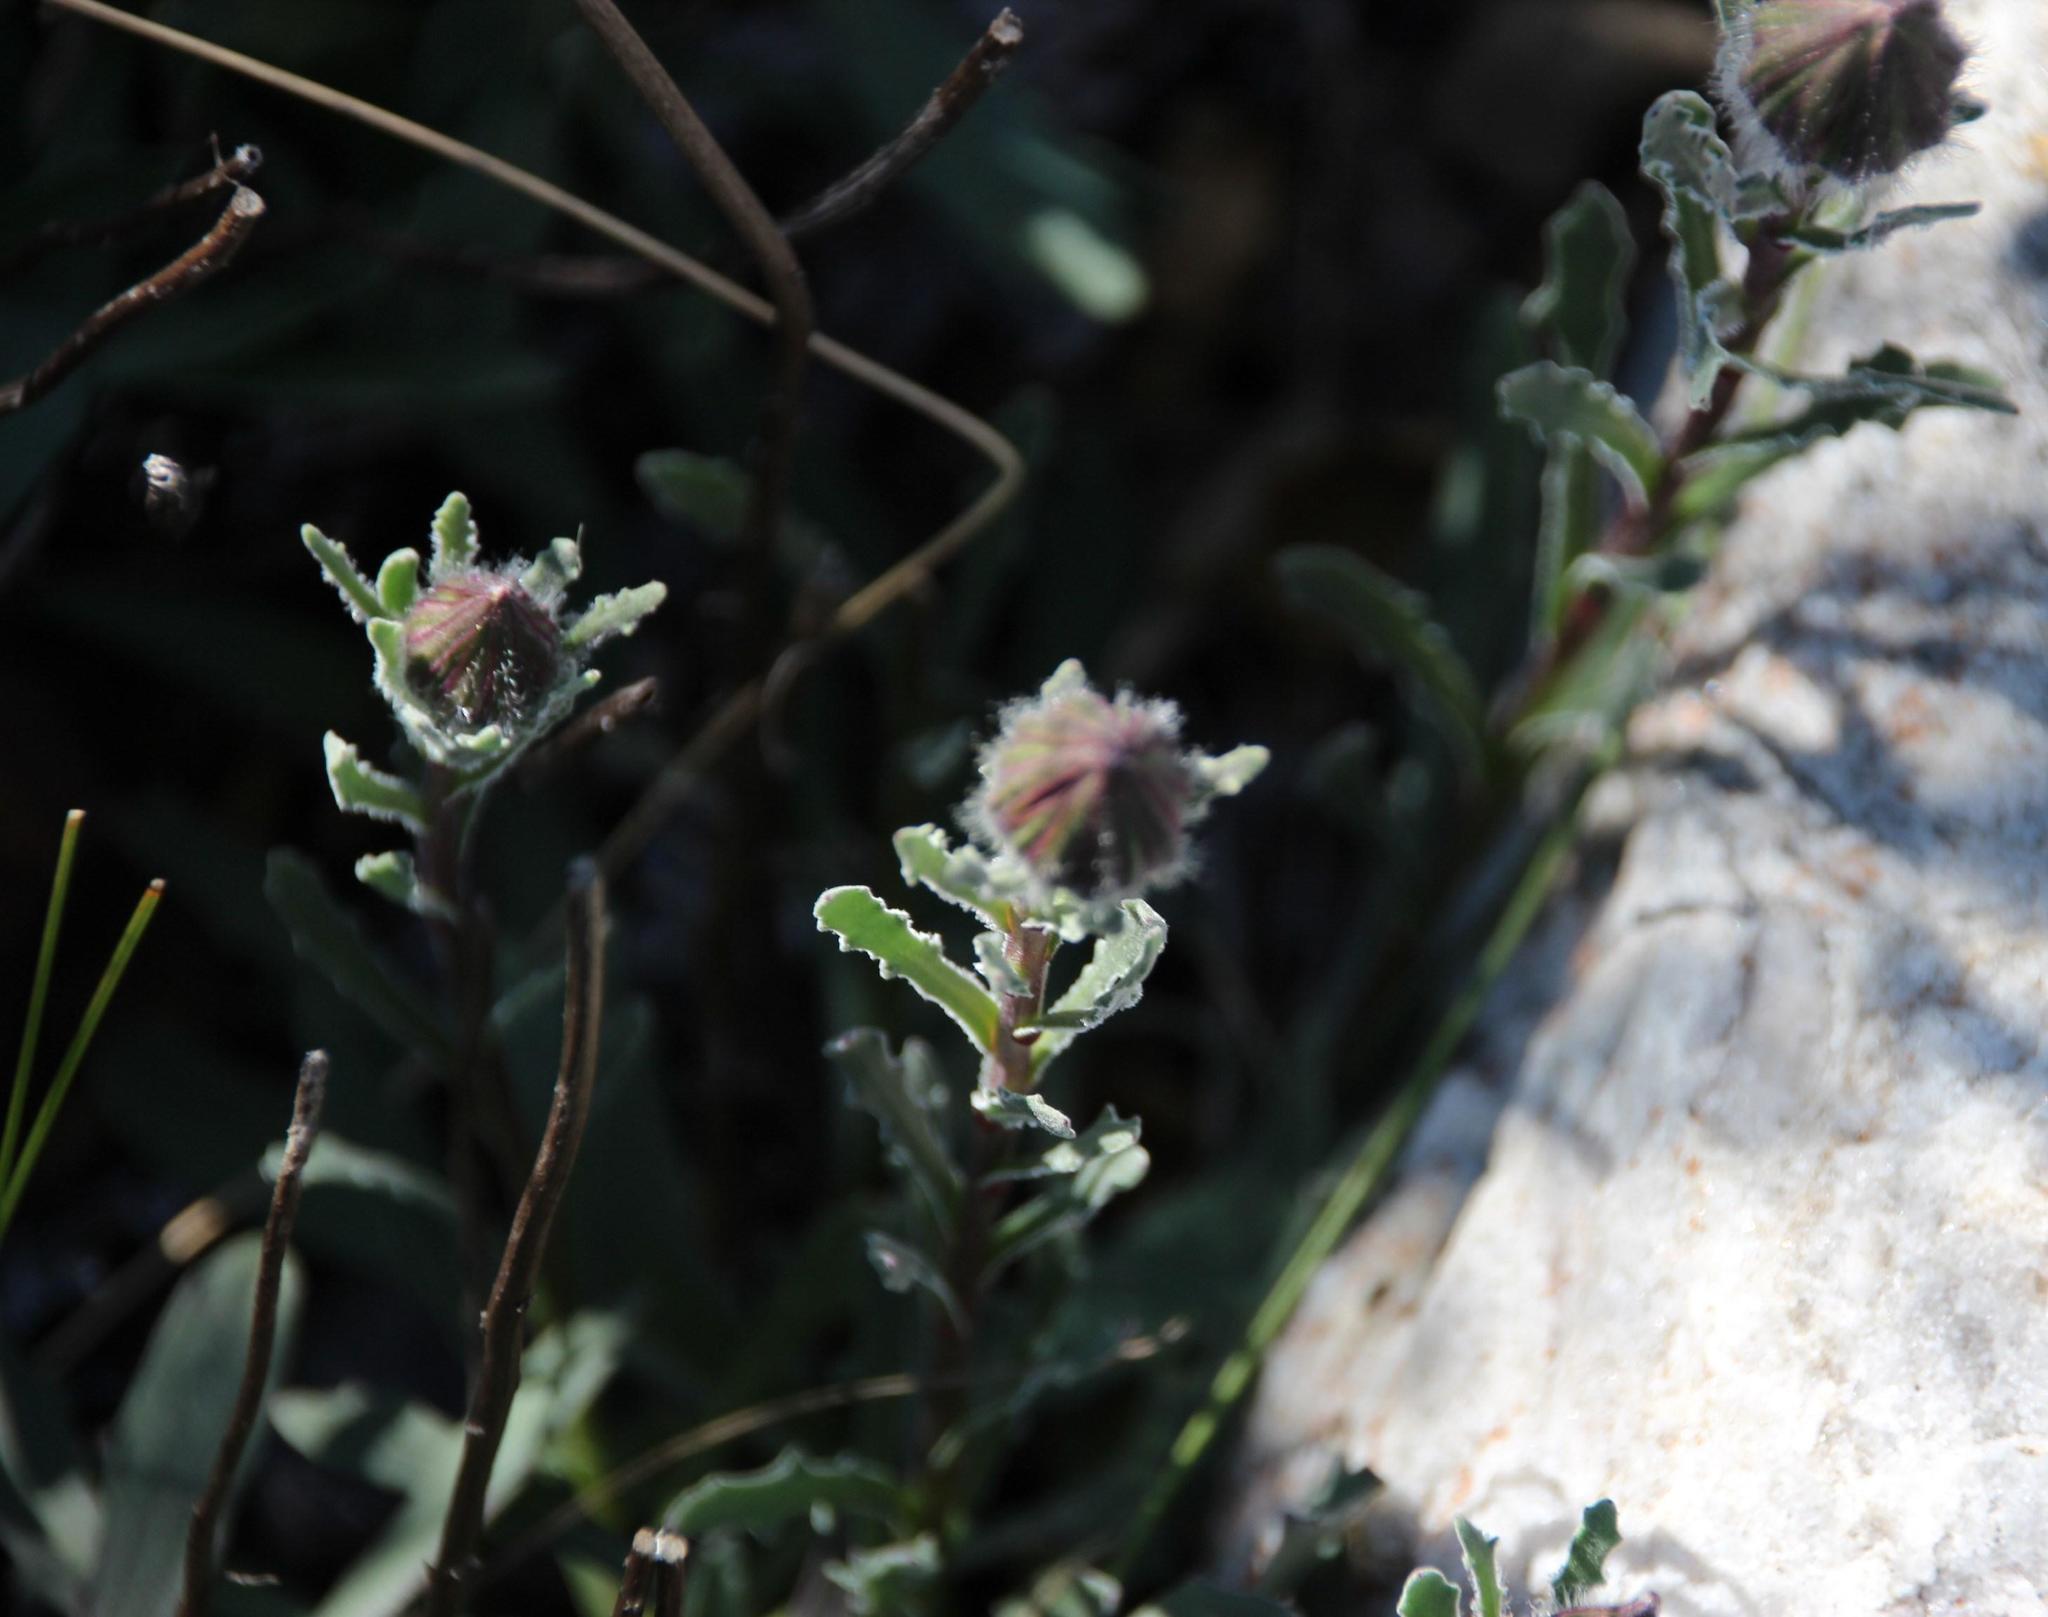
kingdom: Plantae
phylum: Tracheophyta
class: Magnoliopsida
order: Asterales
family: Asteraceae
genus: Dimorphotheca
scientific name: Dimorphotheca nudicaulis
